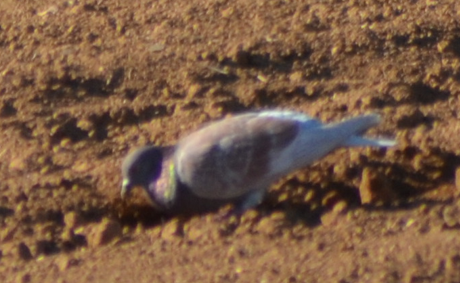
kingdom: Animalia
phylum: Chordata
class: Aves
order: Columbiformes
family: Columbidae
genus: Columba
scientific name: Columba livia
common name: Rock pigeon
